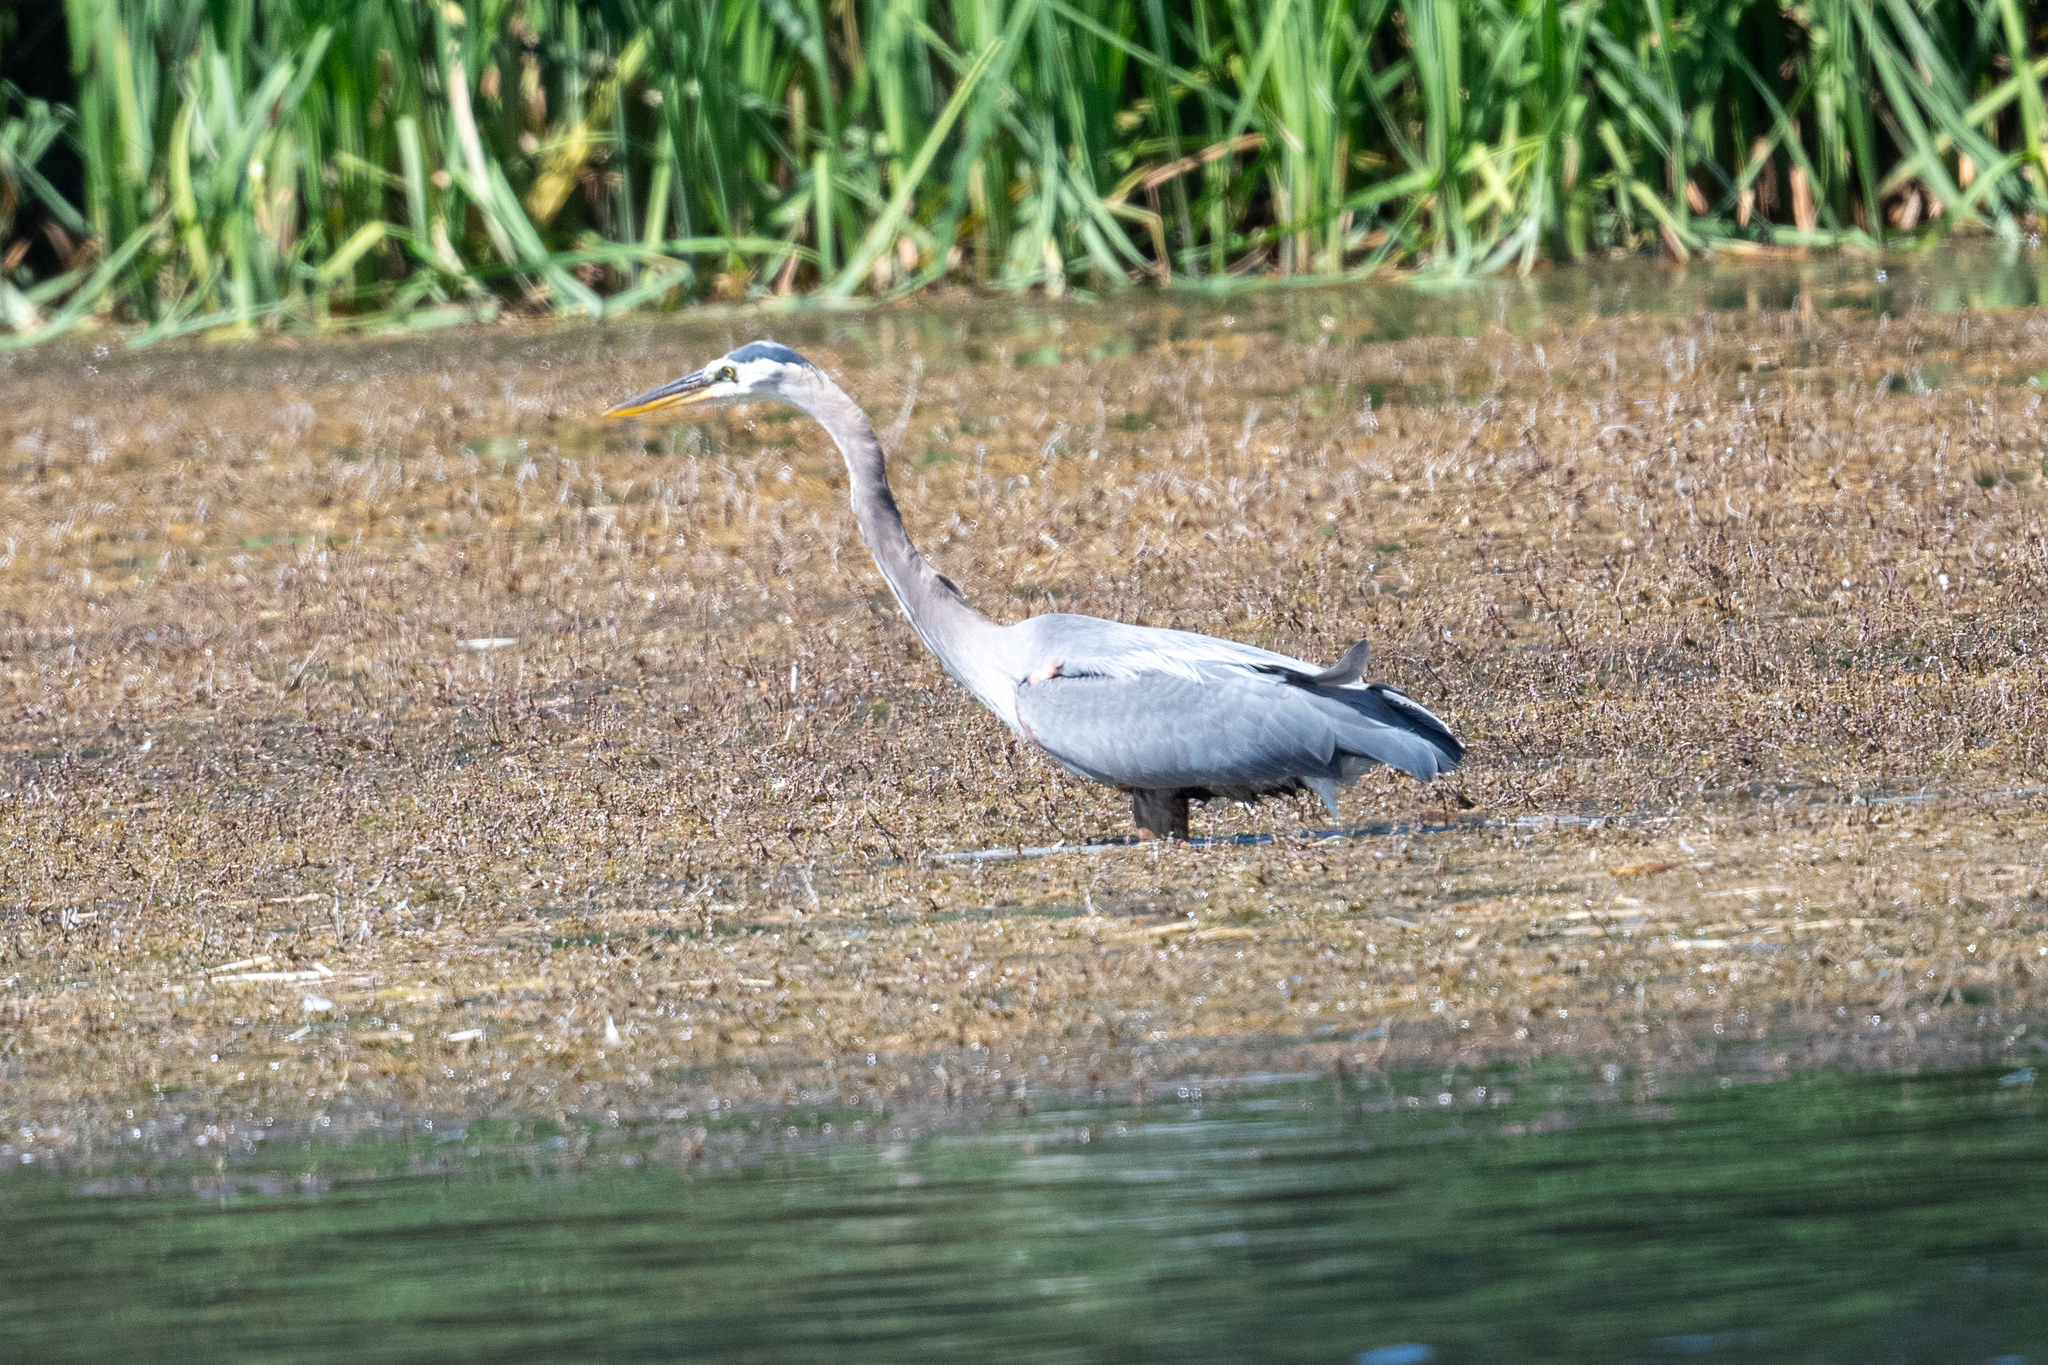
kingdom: Animalia
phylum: Chordata
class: Aves
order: Pelecaniformes
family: Ardeidae
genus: Ardea
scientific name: Ardea herodias
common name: Great blue heron
